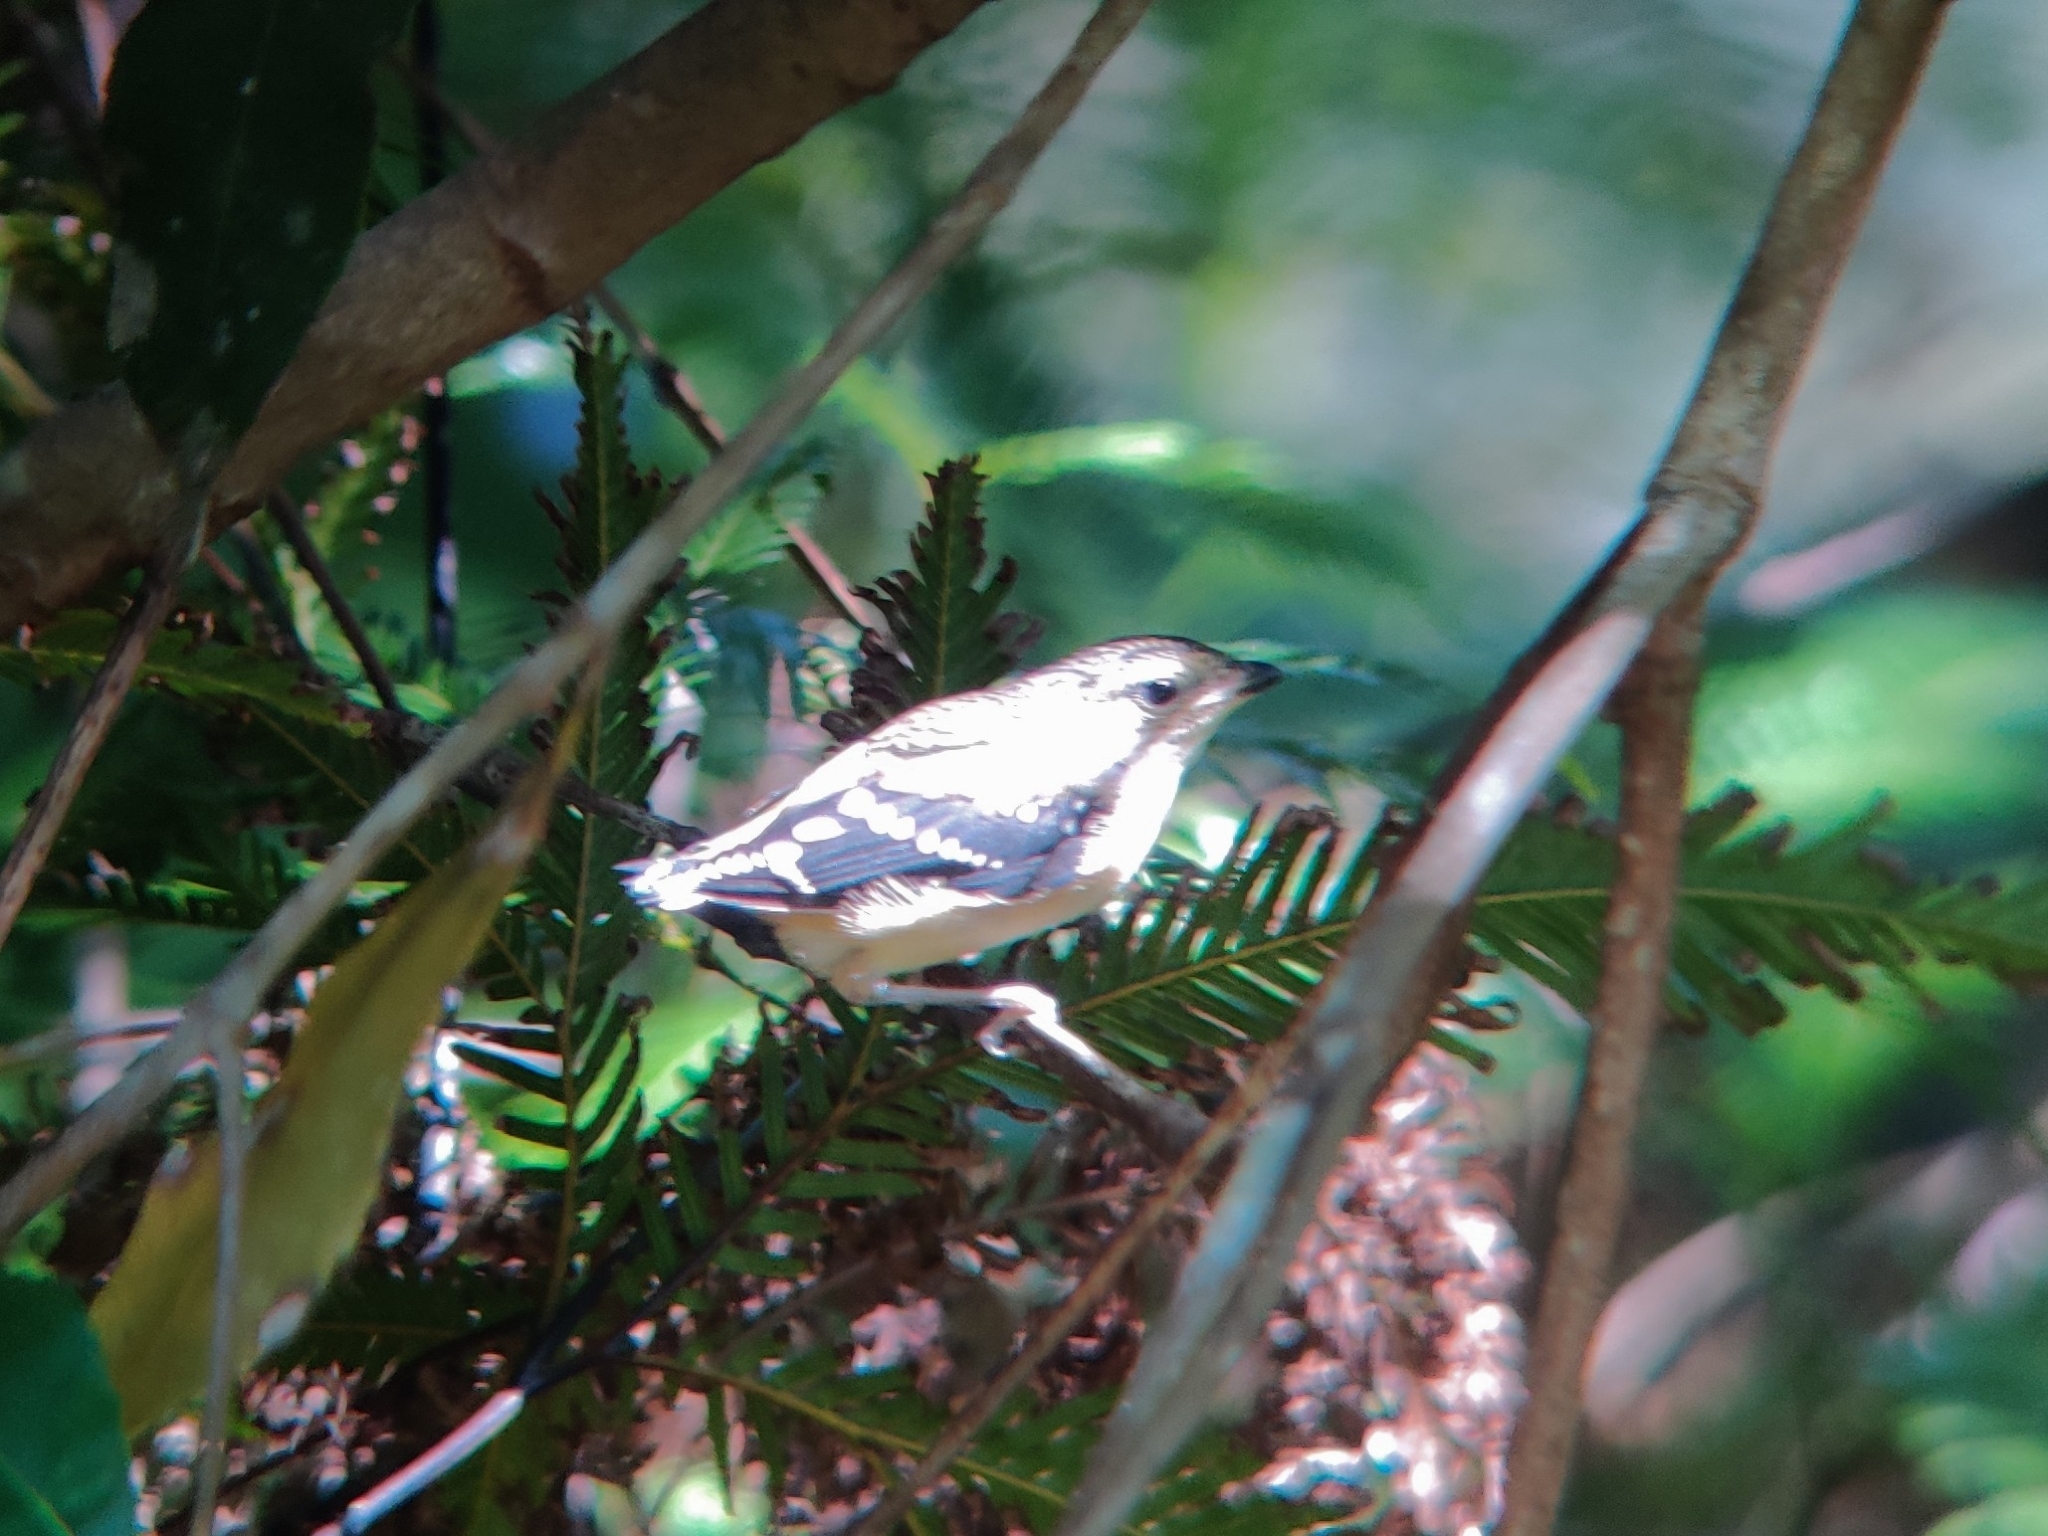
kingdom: Animalia
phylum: Chordata
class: Aves
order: Passeriformes
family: Pardalotidae
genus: Pardalotus
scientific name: Pardalotus punctatus
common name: Spotted pardalote
